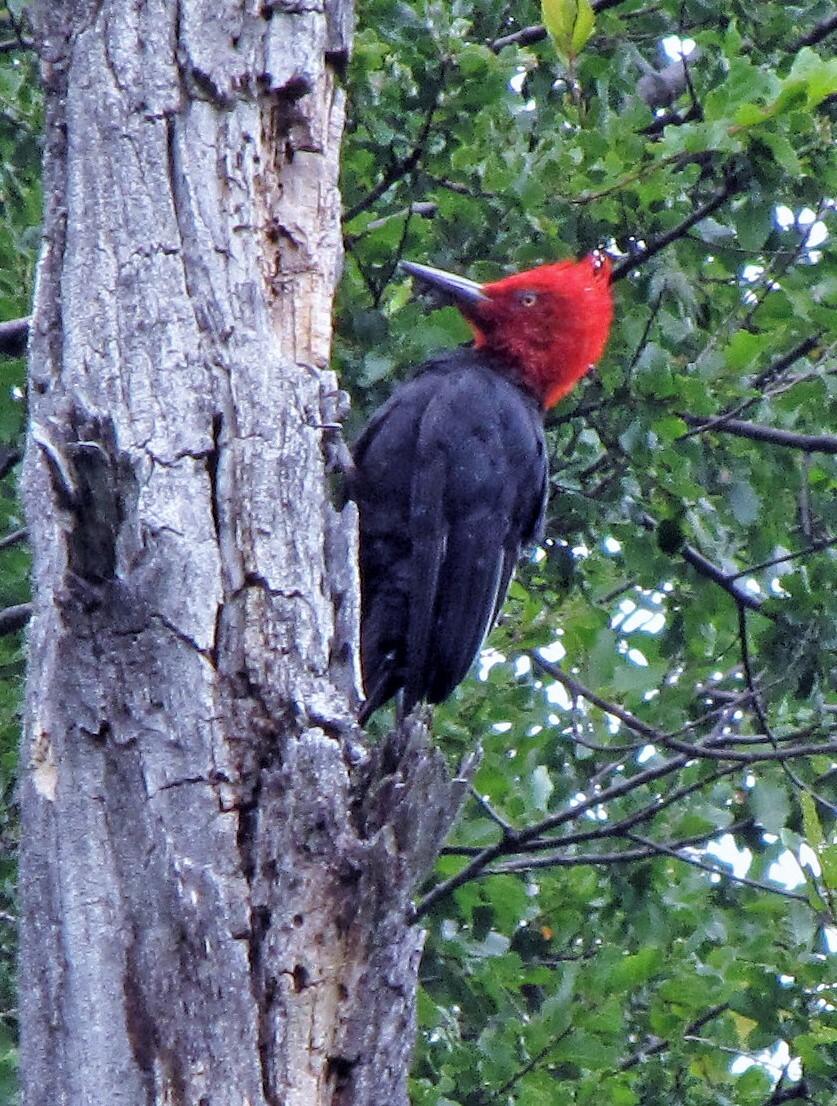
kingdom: Animalia
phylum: Chordata
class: Aves
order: Piciformes
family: Picidae
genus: Campephilus
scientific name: Campephilus magellanicus
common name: Magellanic woodpecker
